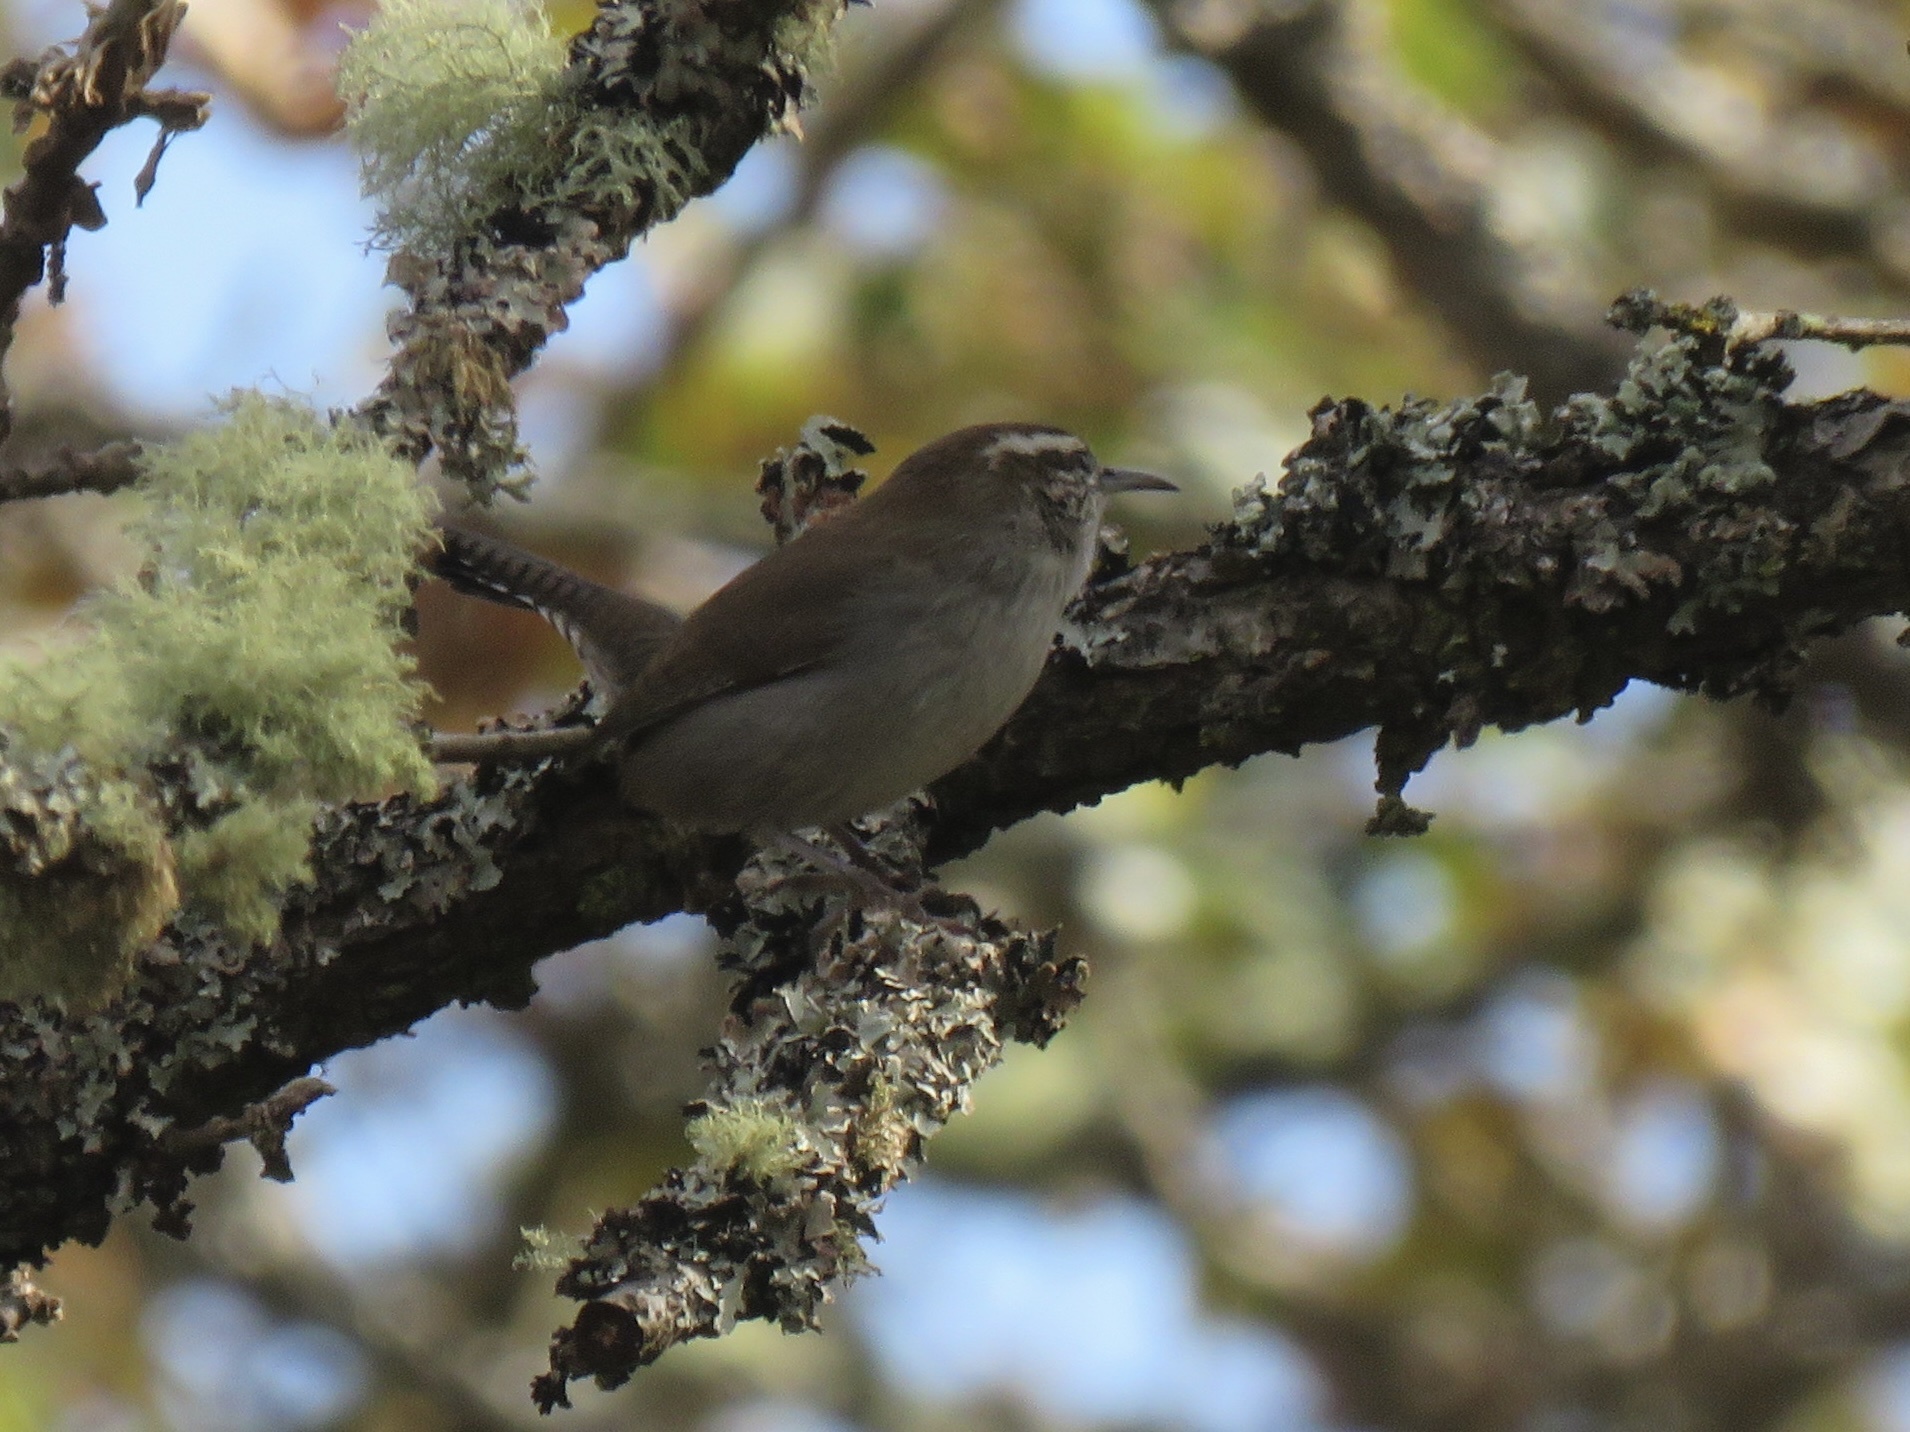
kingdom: Animalia
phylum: Chordata
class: Aves
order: Passeriformes
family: Troglodytidae
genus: Thryomanes
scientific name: Thryomanes bewickii
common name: Bewick's wren
